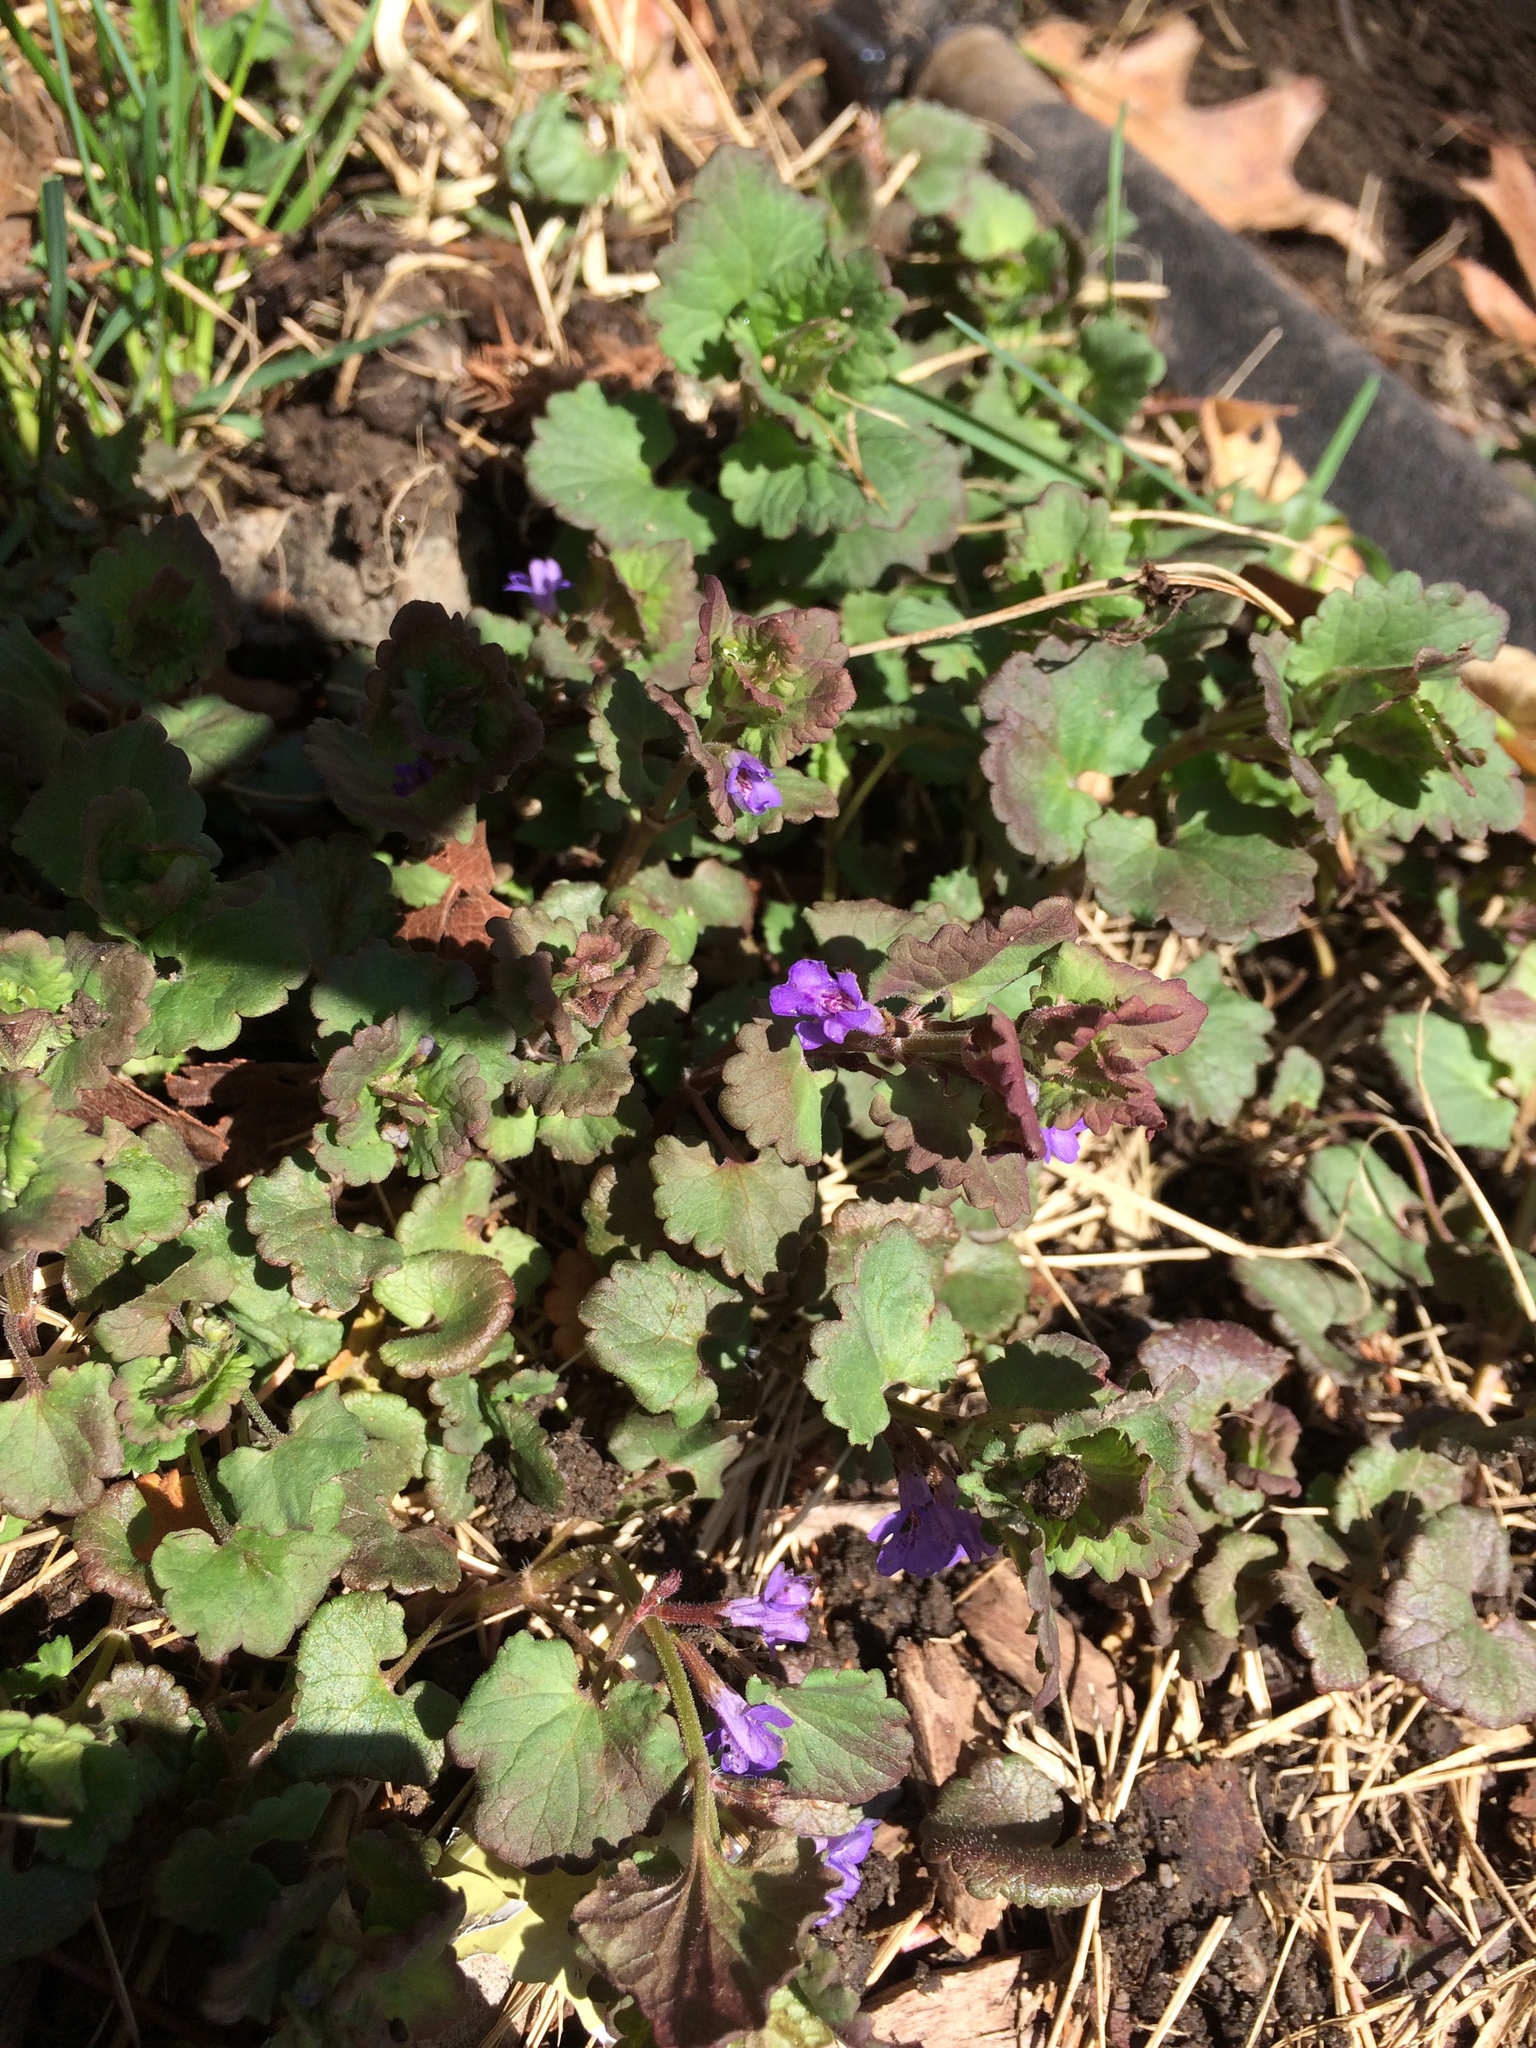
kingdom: Plantae
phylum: Tracheophyta
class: Magnoliopsida
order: Lamiales
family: Lamiaceae
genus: Glechoma
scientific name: Glechoma hederacea
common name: Ground ivy
